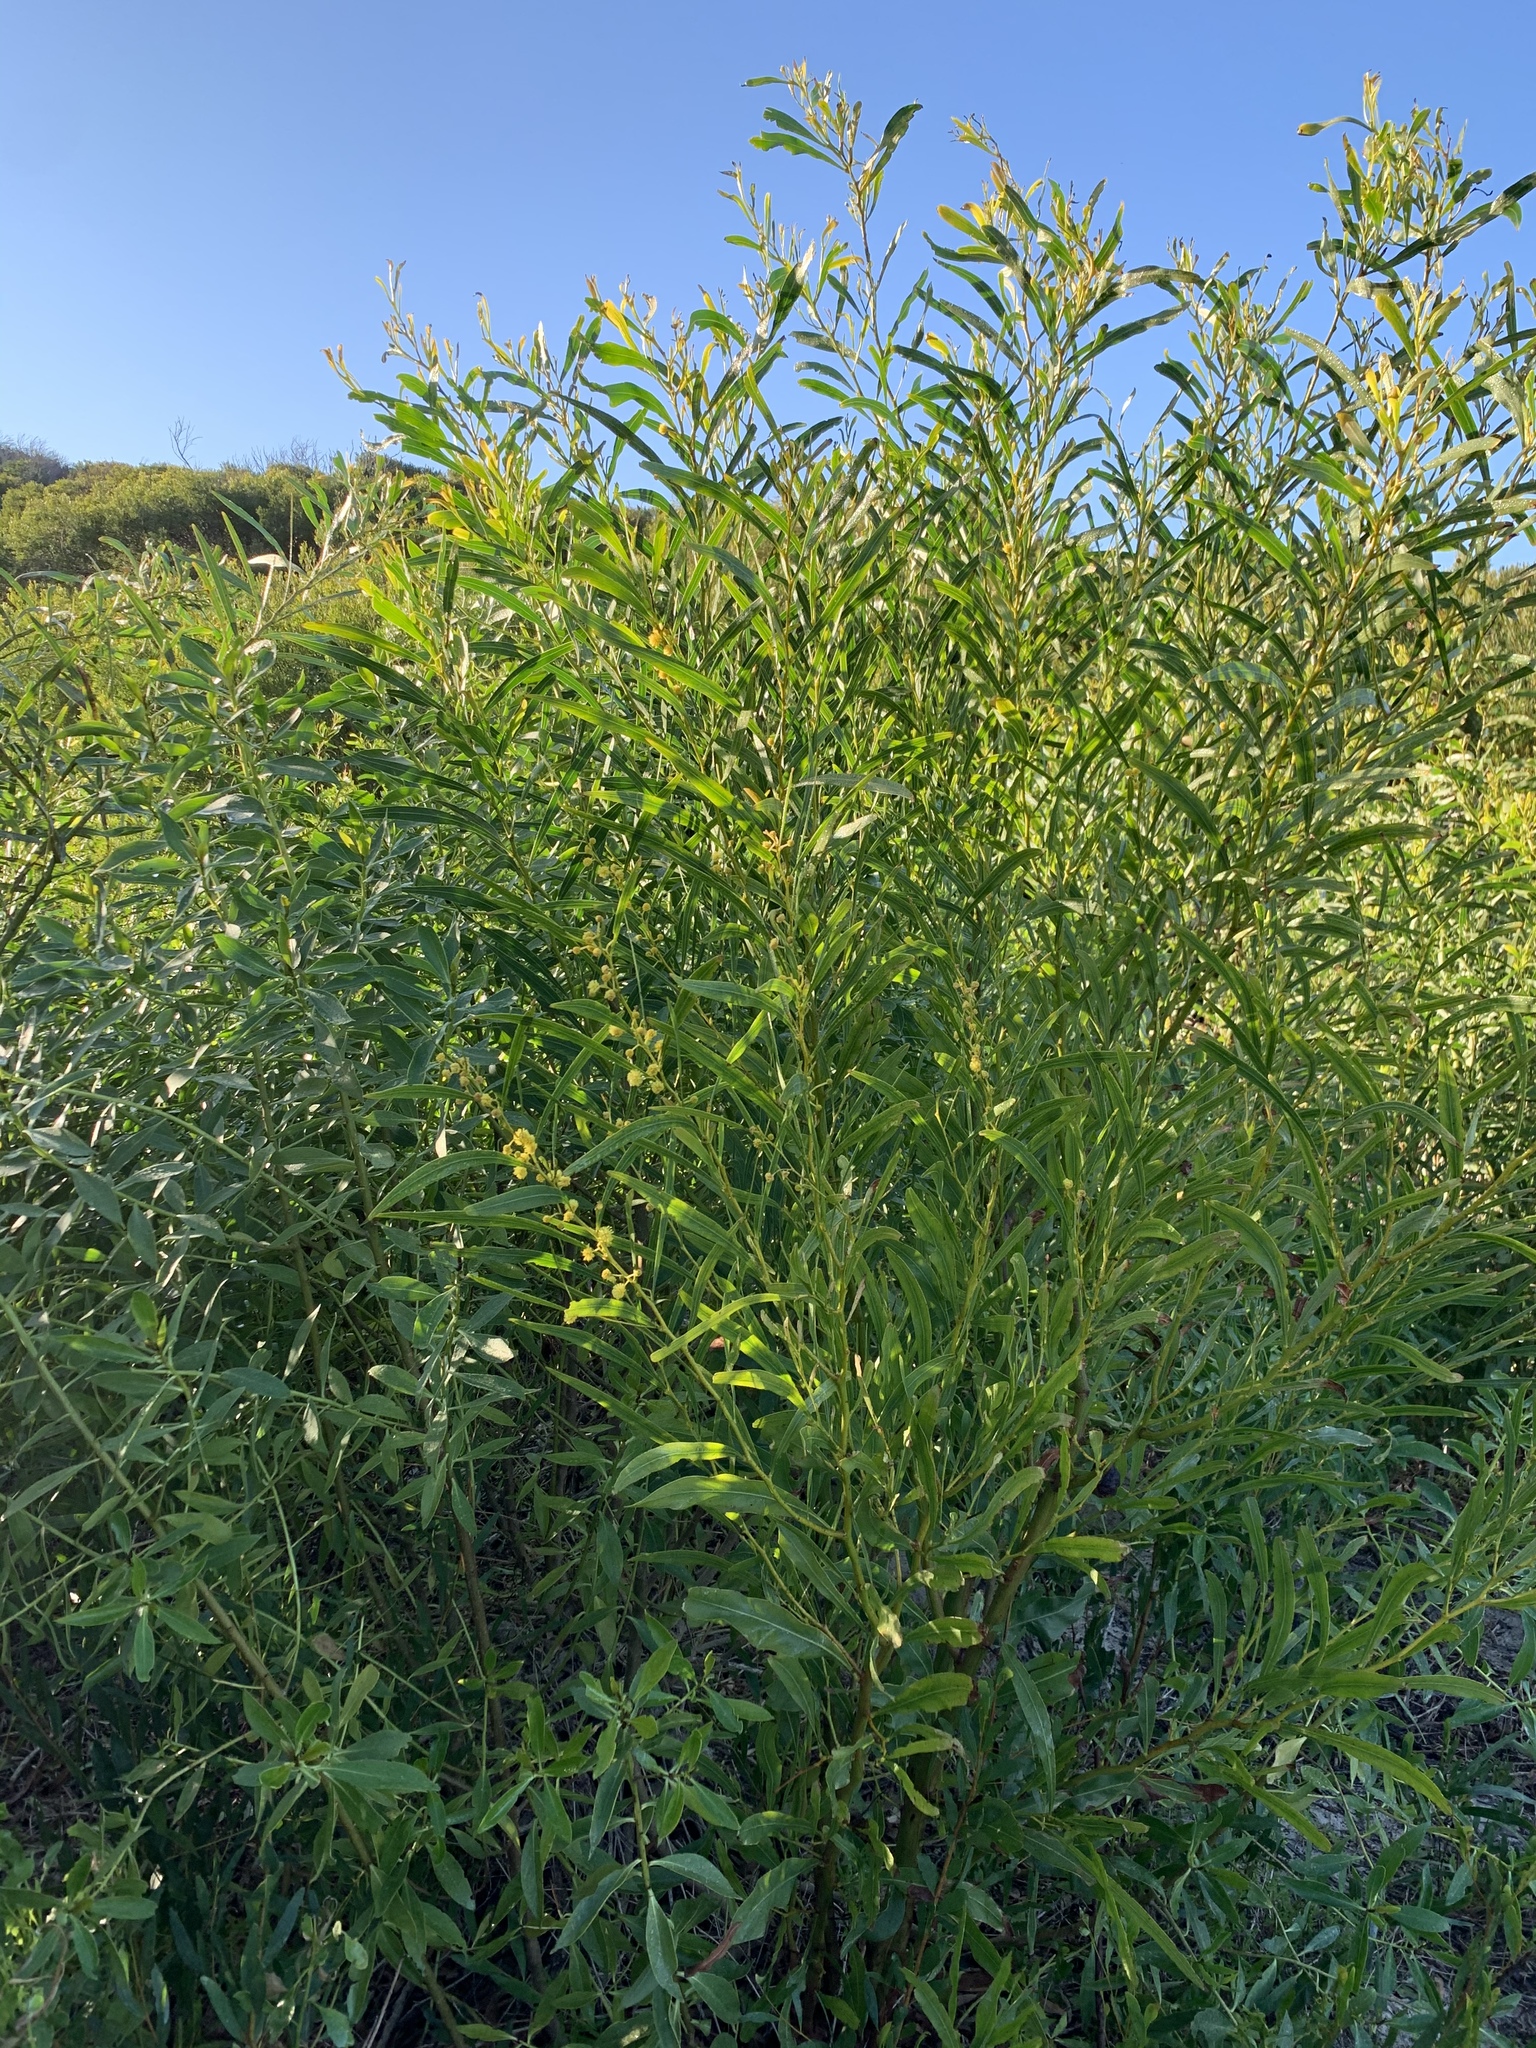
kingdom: Plantae
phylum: Tracheophyta
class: Magnoliopsida
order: Fabales
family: Fabaceae
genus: Acacia
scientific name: Acacia saligna
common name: Orange wattle
